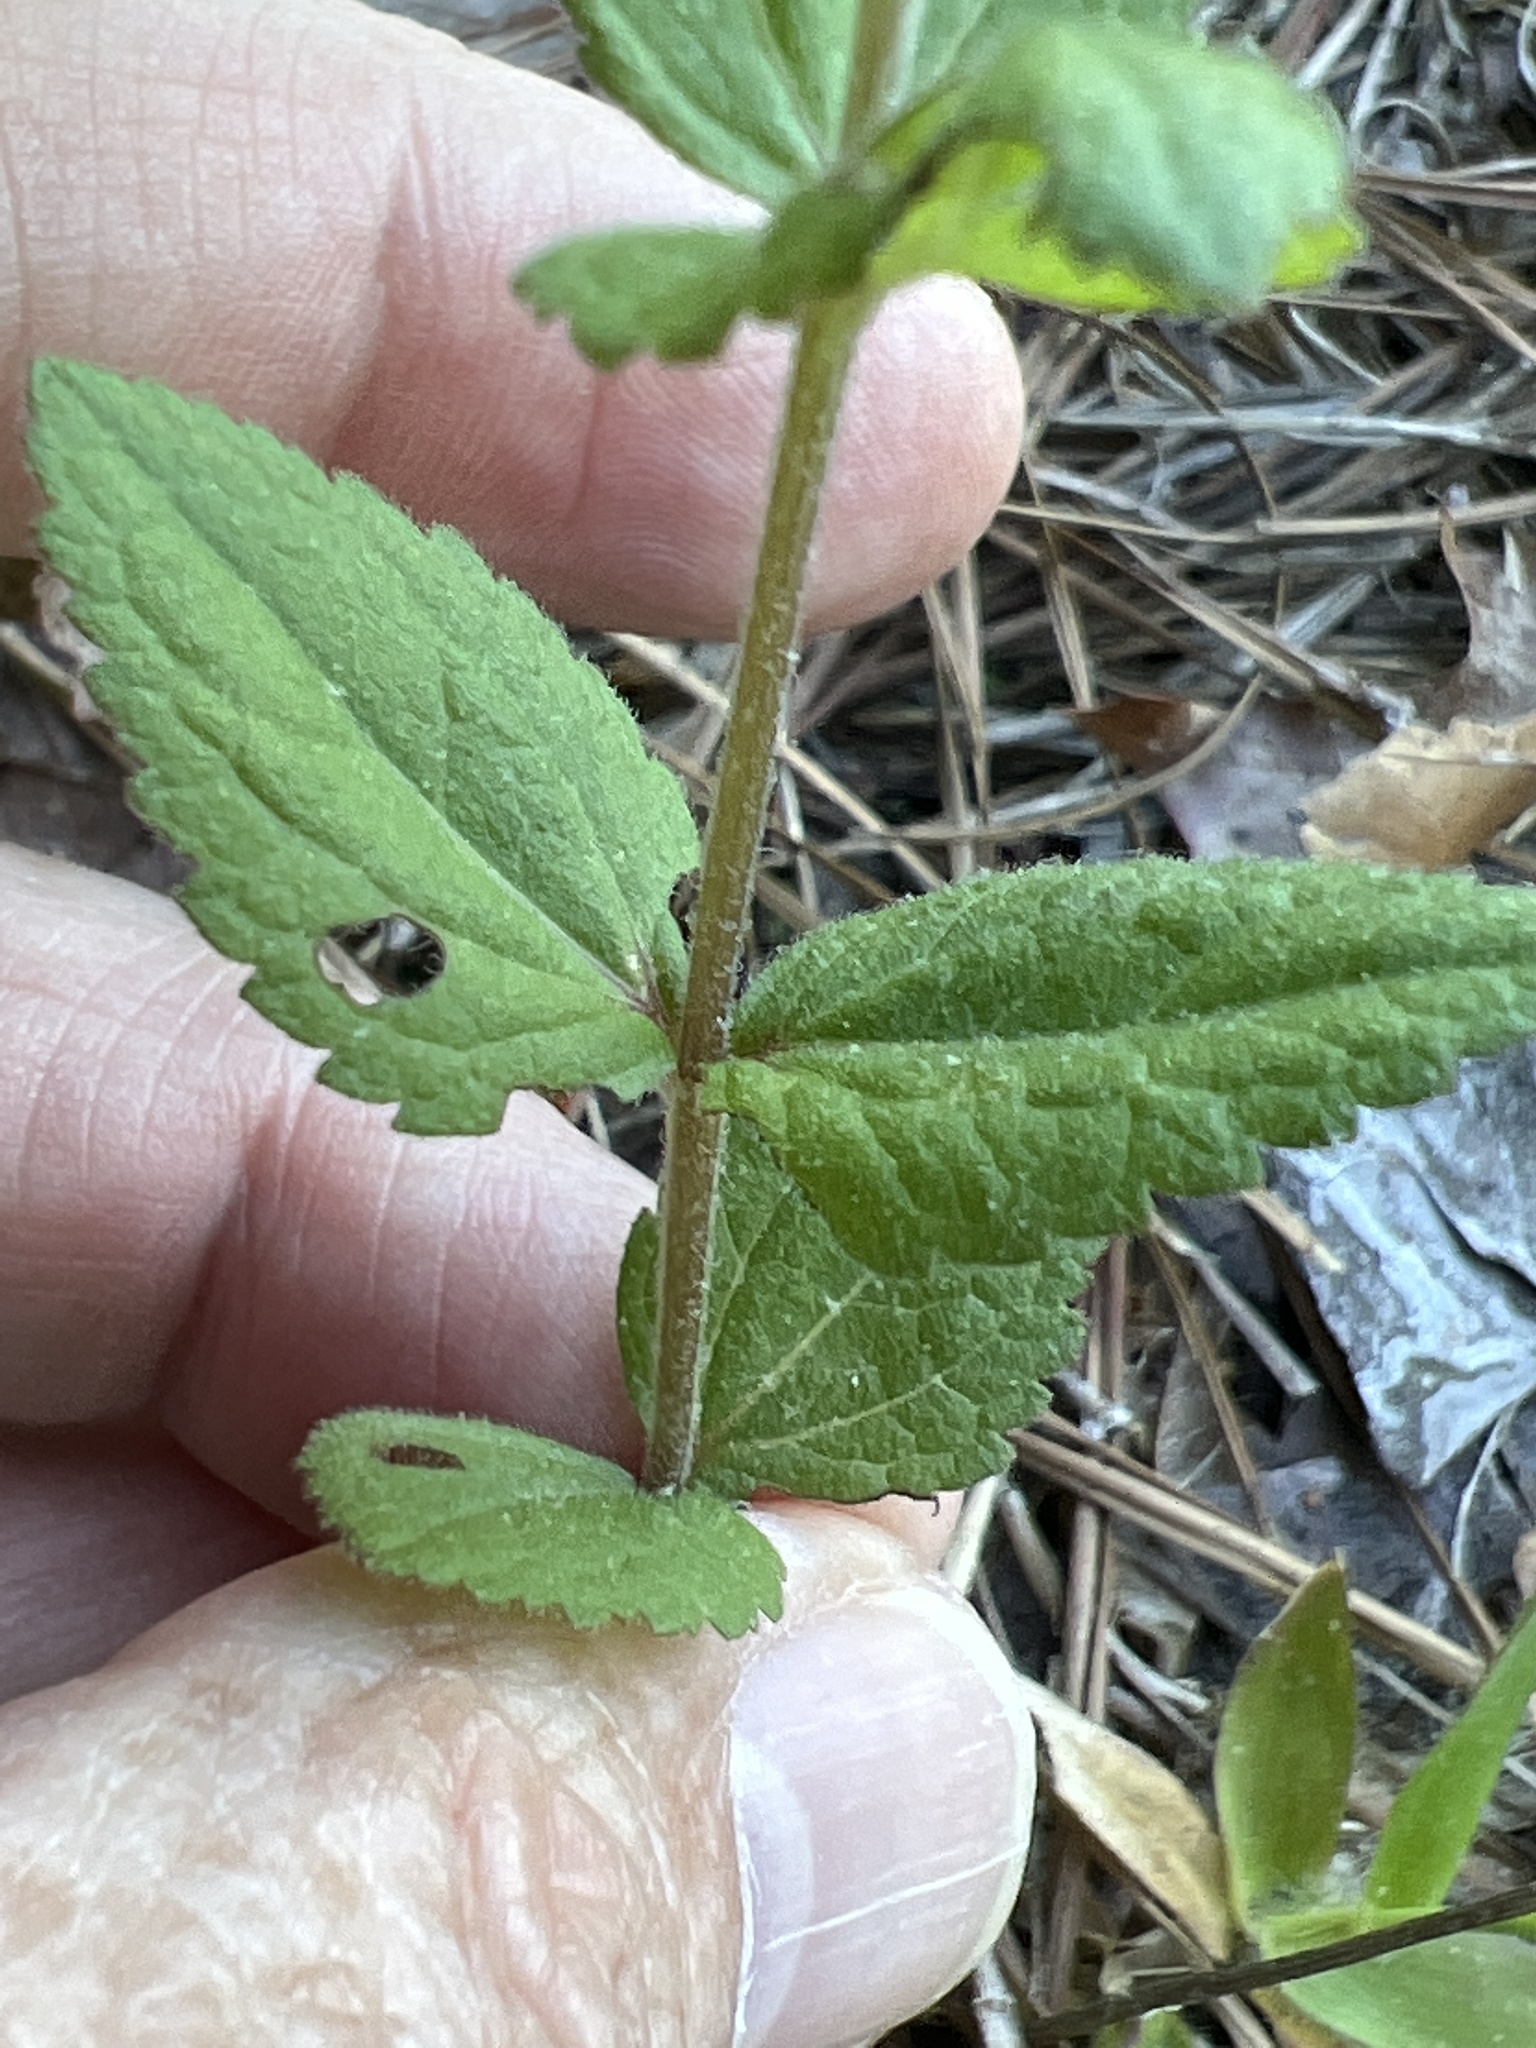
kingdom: Plantae
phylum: Tracheophyta
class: Magnoliopsida
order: Asterales
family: Asteraceae
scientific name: Asteraceae
